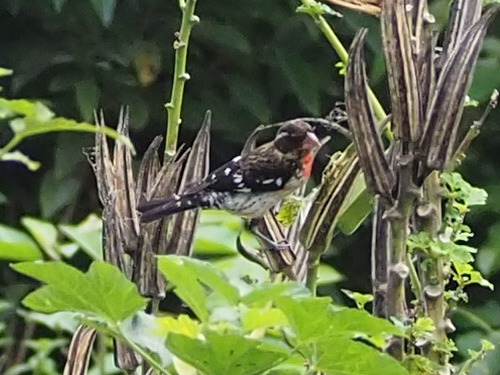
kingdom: Animalia
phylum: Chordata
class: Aves
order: Passeriformes
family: Cardinalidae
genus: Pheucticus
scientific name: Pheucticus ludovicianus
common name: Rose-breasted grosbeak
